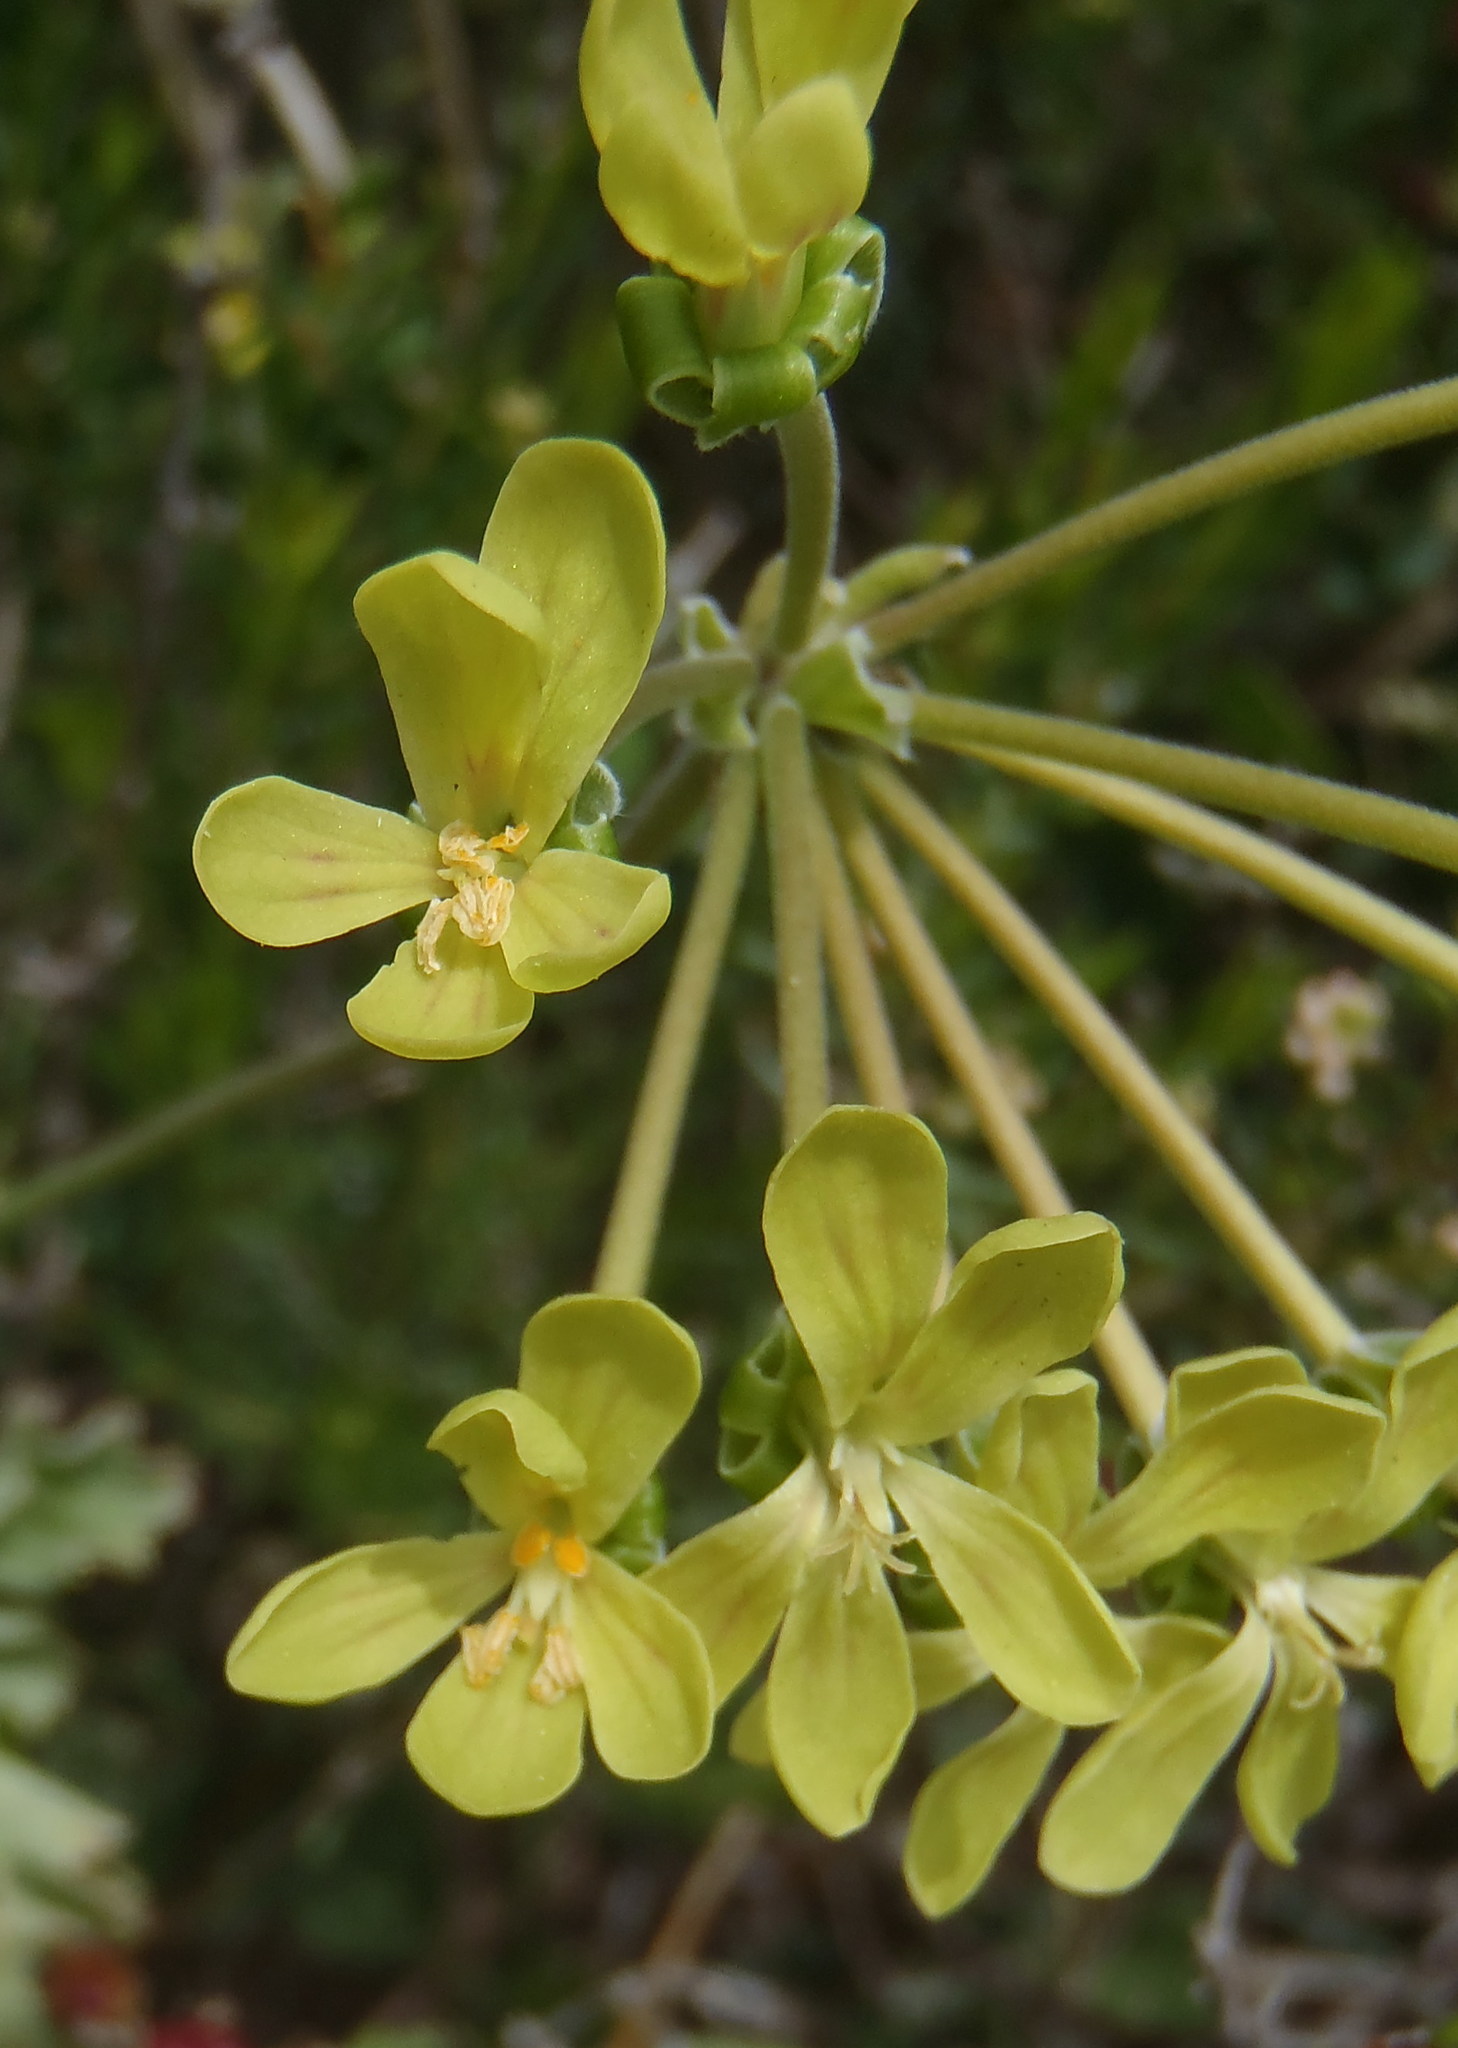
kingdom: Plantae
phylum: Tracheophyta
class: Magnoliopsida
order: Geraniales
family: Geraniaceae
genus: Pelargonium
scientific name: Pelargonium gibbosum
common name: Gouty geranium
